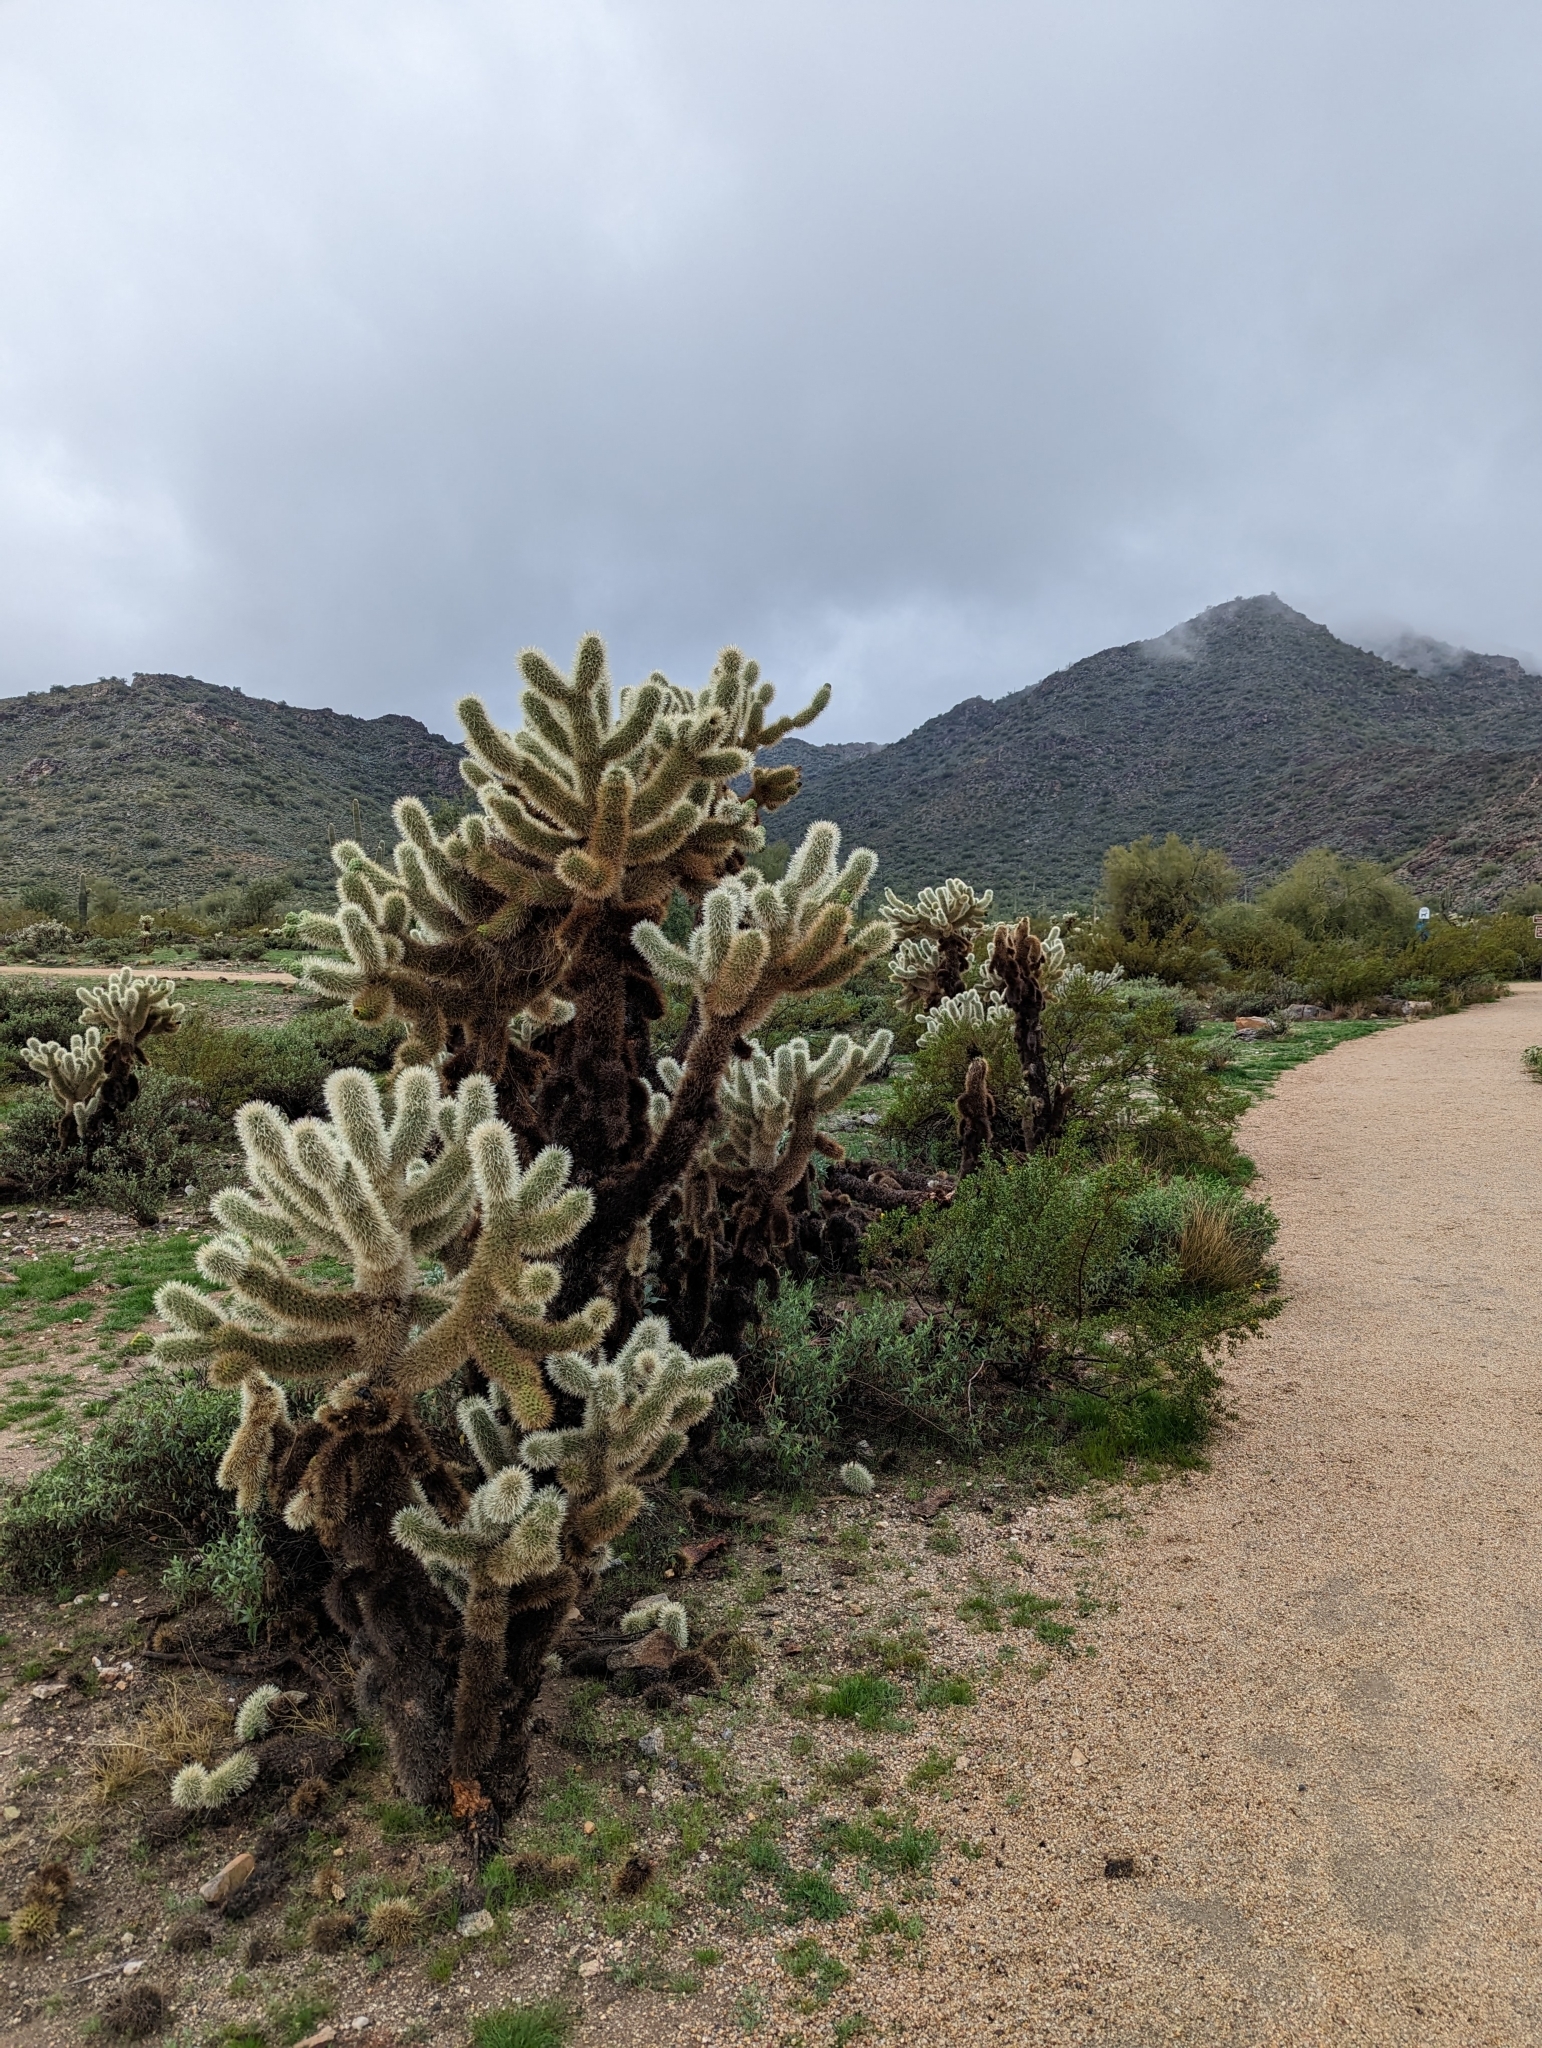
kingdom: Plantae
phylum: Tracheophyta
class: Magnoliopsida
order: Caryophyllales
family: Cactaceae
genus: Cylindropuntia
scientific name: Cylindropuntia fosbergii
